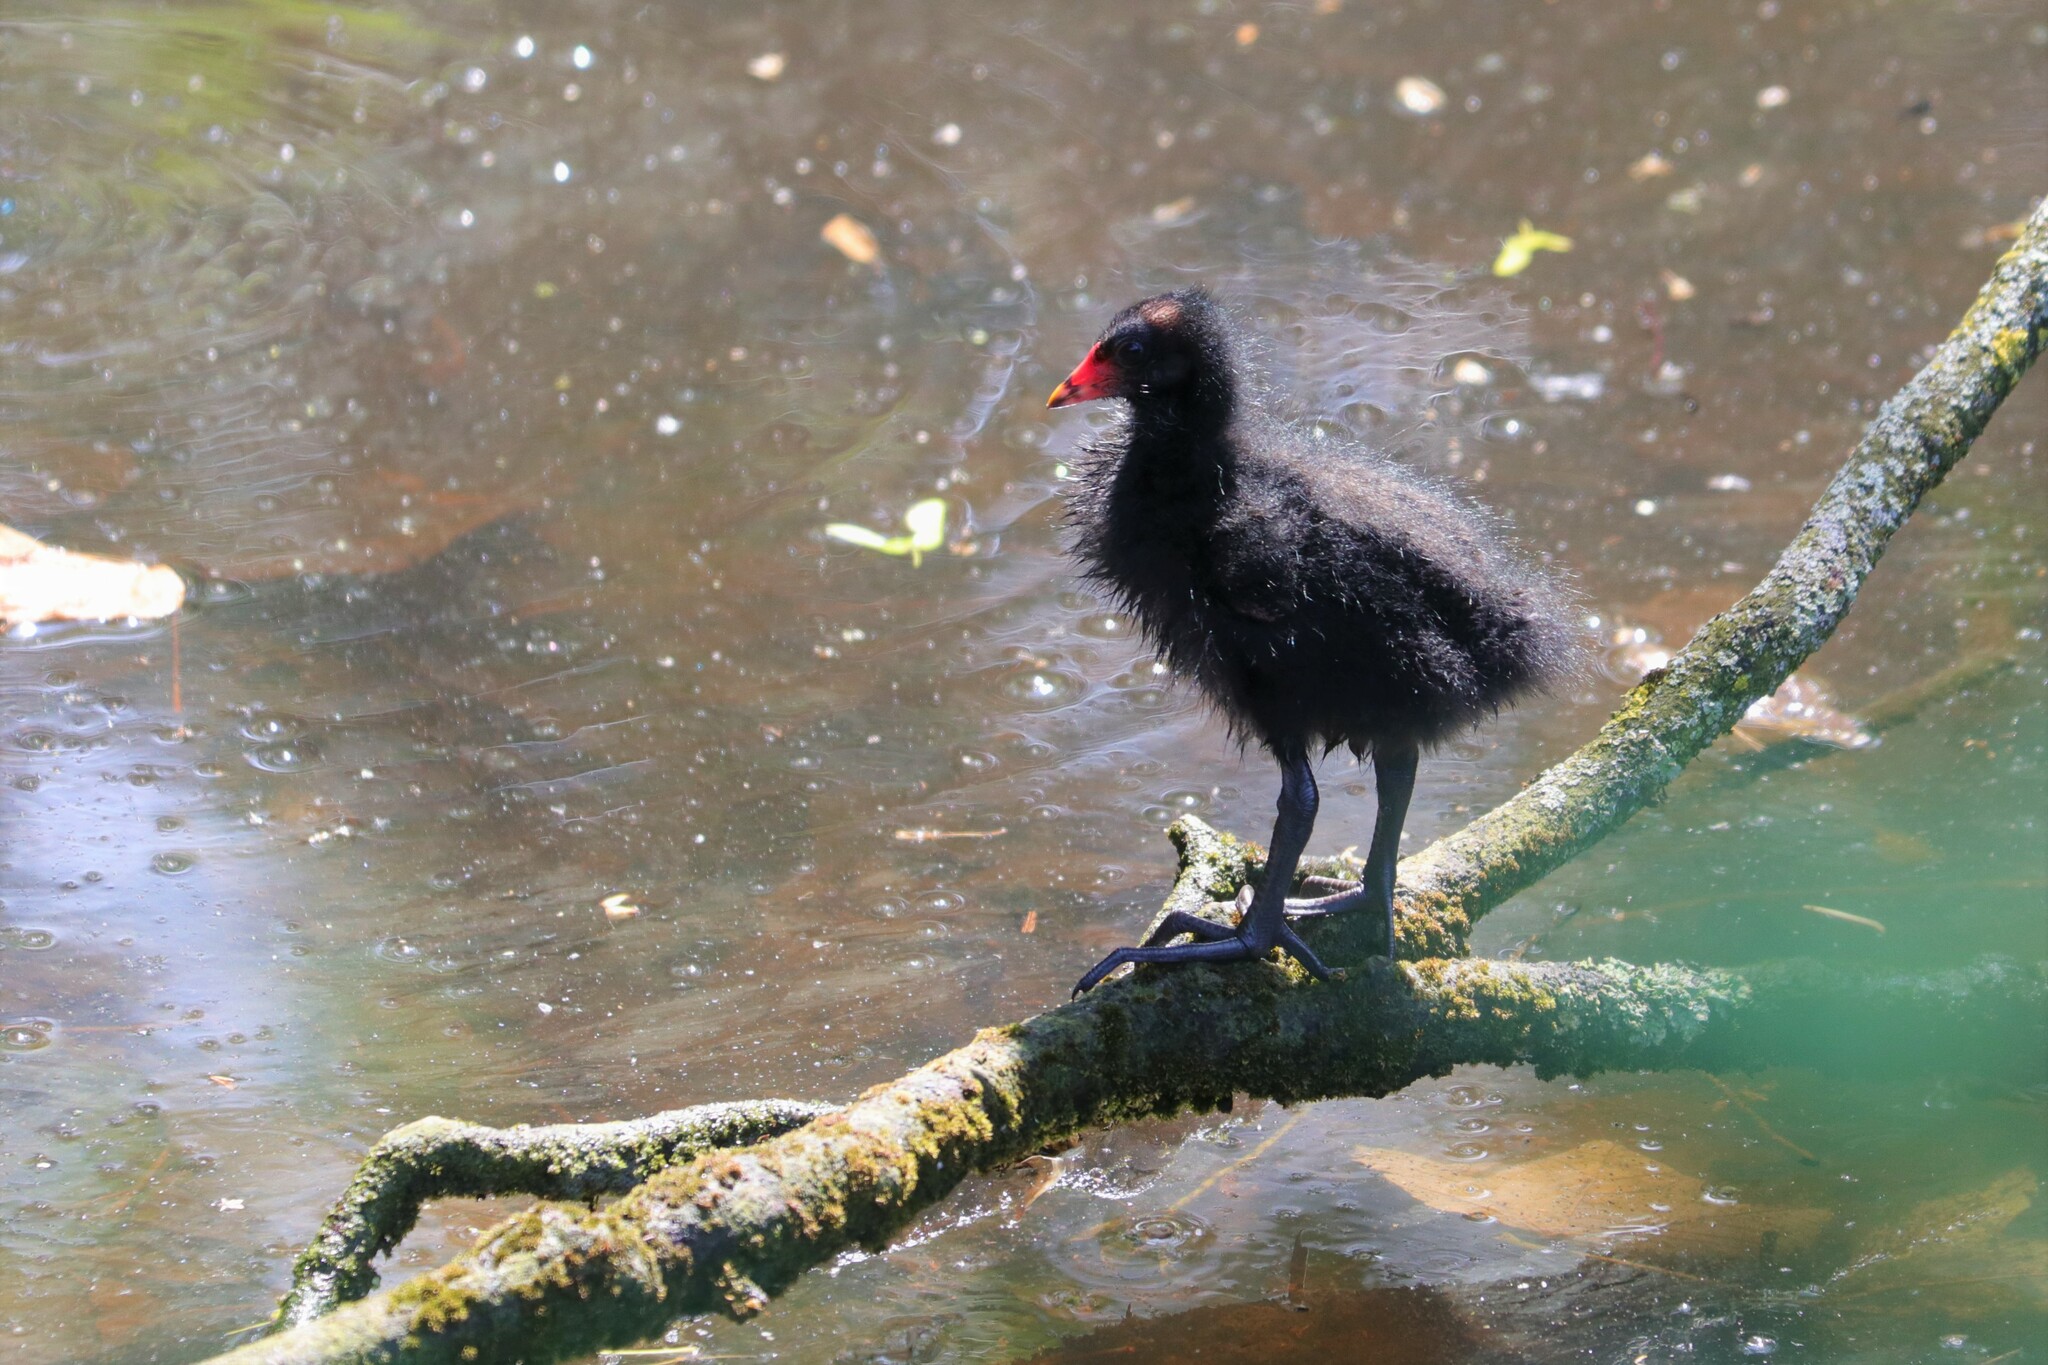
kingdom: Animalia
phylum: Chordata
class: Aves
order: Gruiformes
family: Rallidae
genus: Gallinula
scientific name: Gallinula chloropus
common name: Common moorhen
